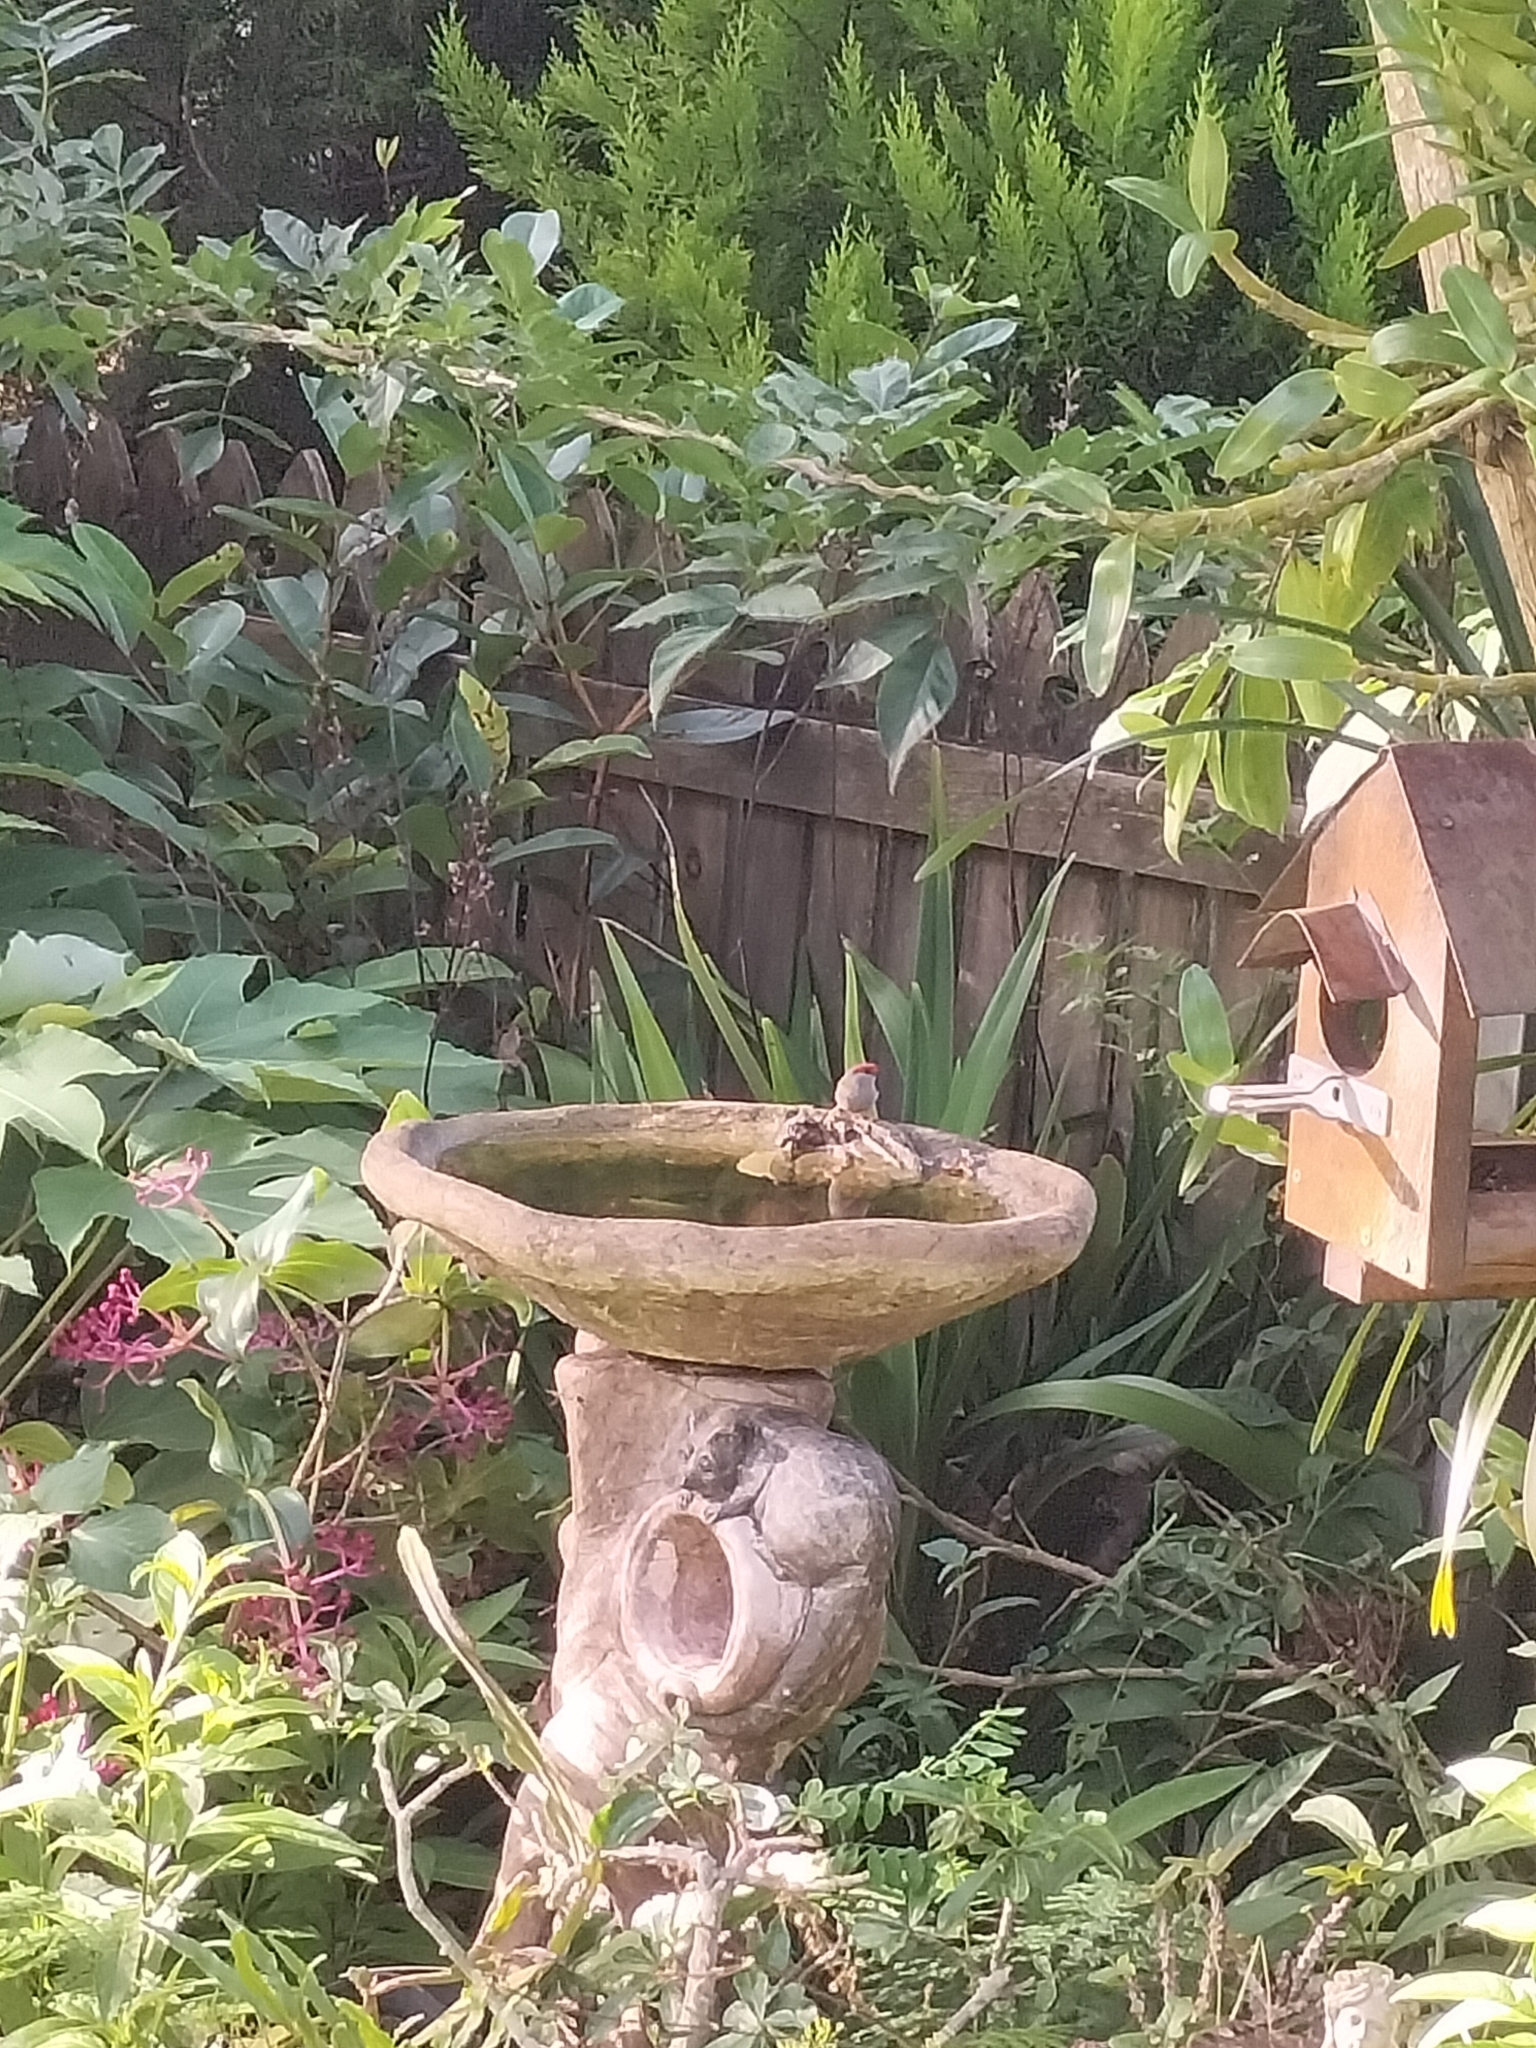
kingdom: Animalia
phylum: Chordata
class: Aves
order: Passeriformes
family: Estrildidae
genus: Neochmia
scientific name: Neochmia temporalis
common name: Red-browed finch
